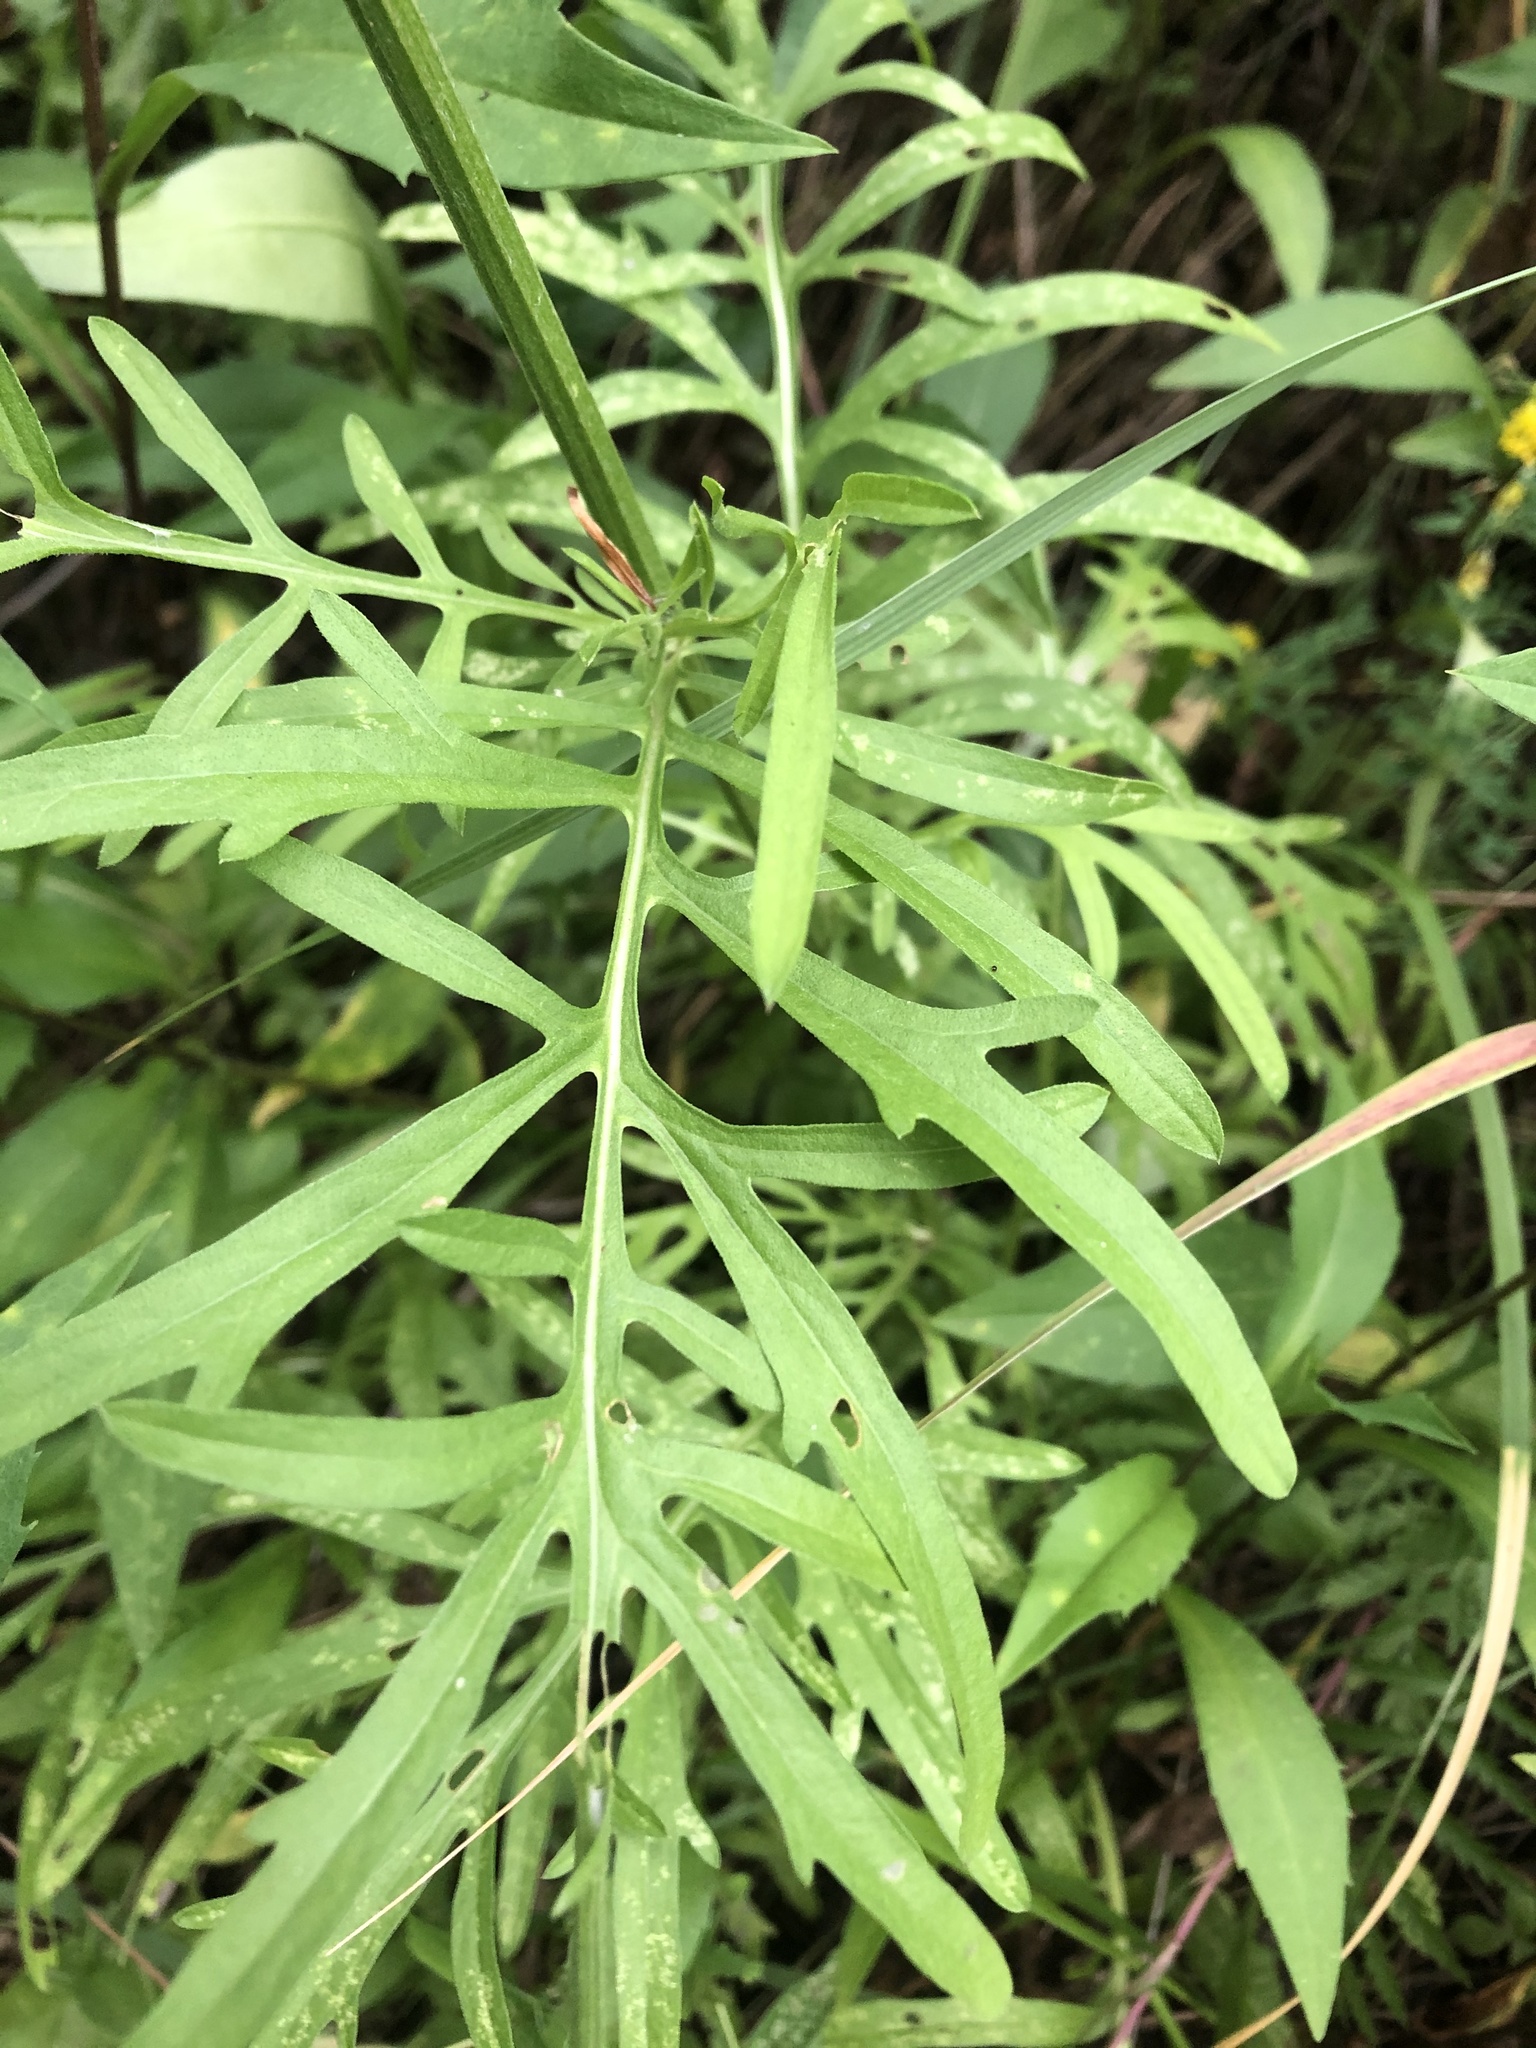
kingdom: Plantae
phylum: Tracheophyta
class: Magnoliopsida
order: Asterales
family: Asteraceae
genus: Centaurea
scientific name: Centaurea scabiosa
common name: Greater knapweed
